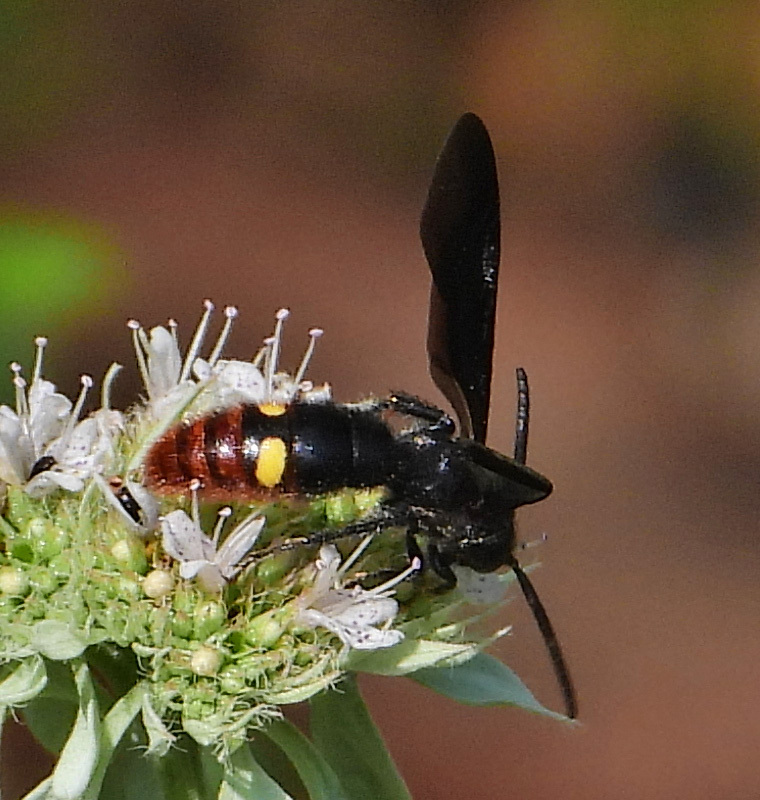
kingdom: Animalia
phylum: Arthropoda
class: Insecta
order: Hymenoptera
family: Scoliidae
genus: Scolia
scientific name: Scolia dubia
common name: Blue-winged scoliid wasp
